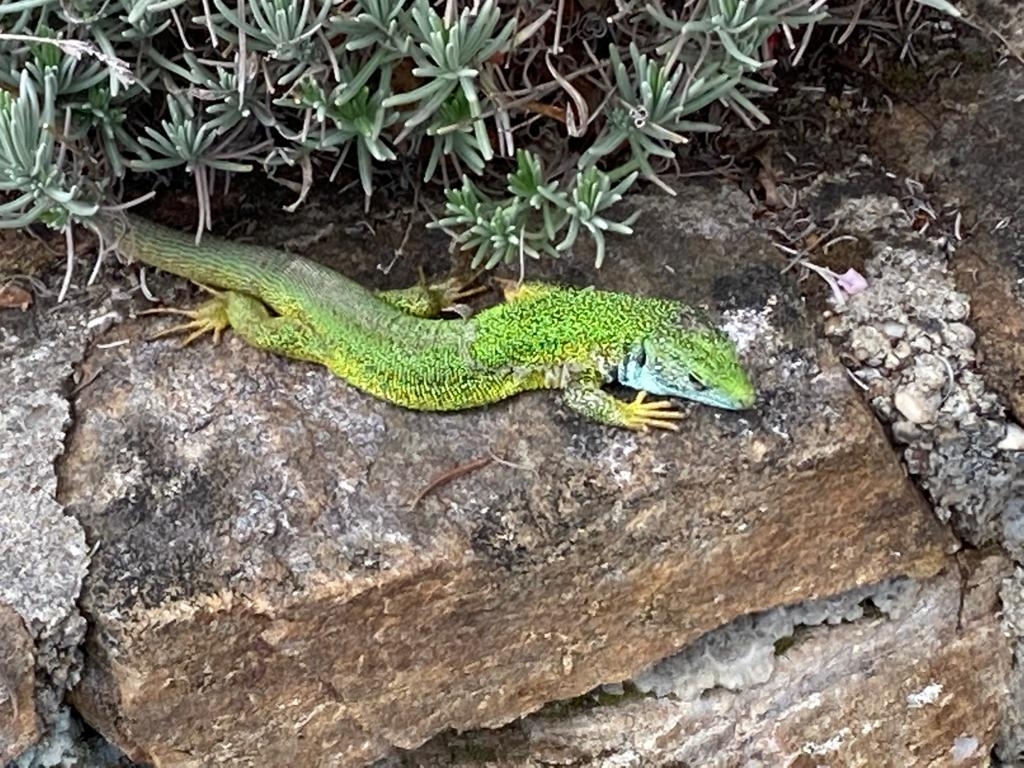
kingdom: Animalia
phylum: Chordata
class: Squamata
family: Lacertidae
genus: Lacerta
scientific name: Lacerta viridis
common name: European green lizard
